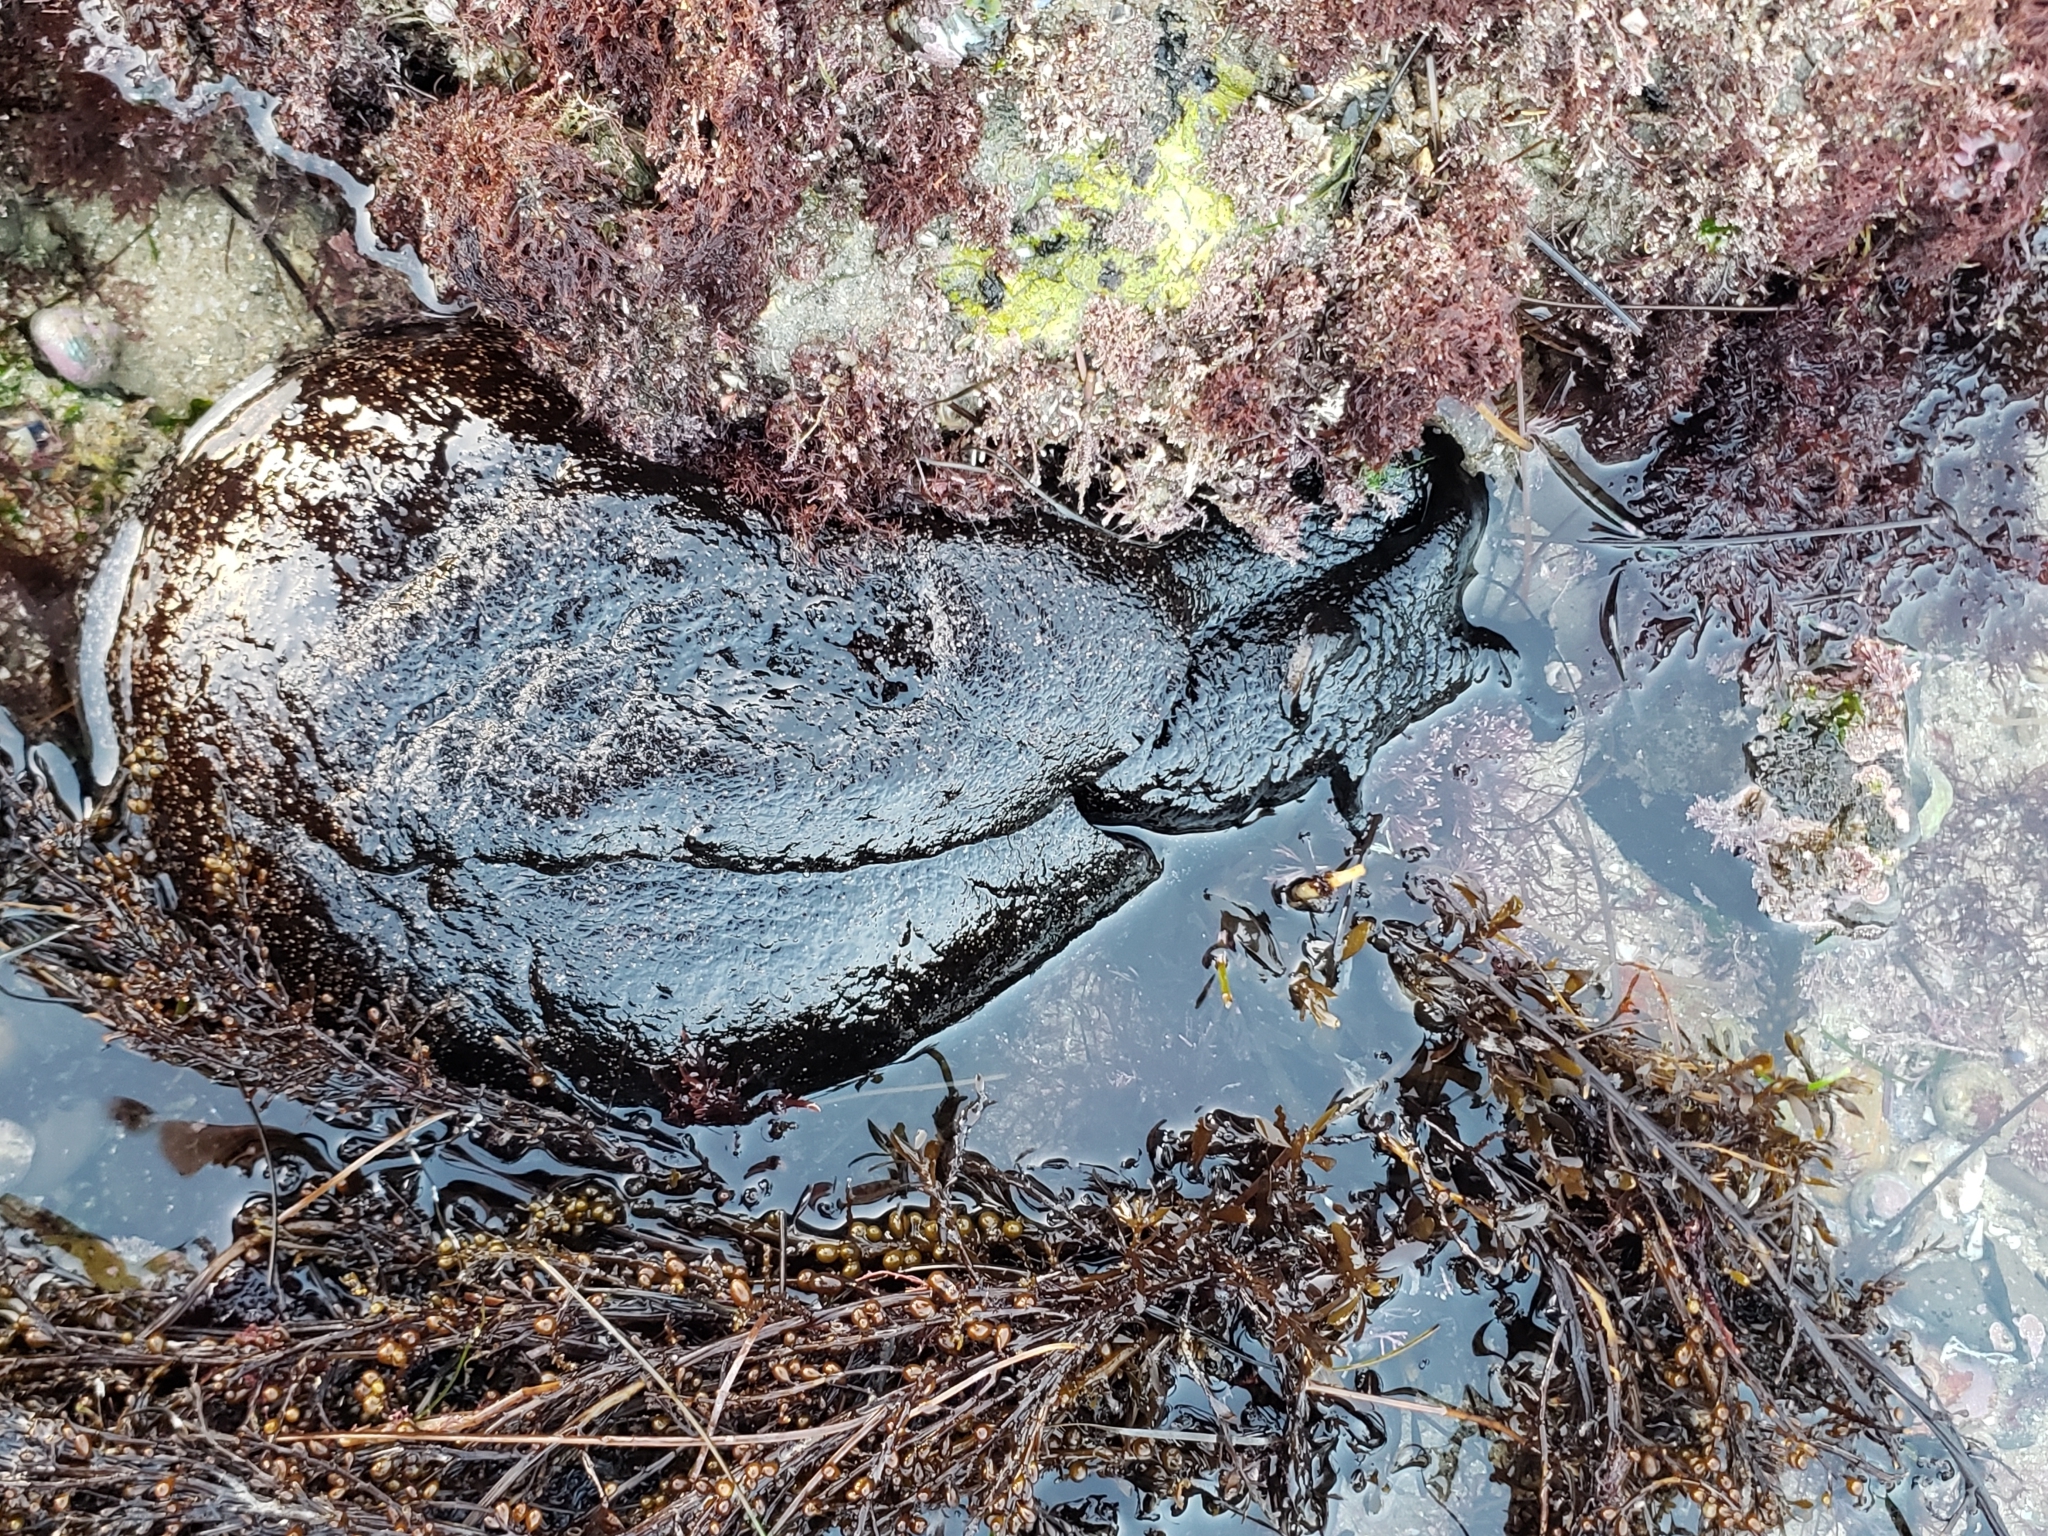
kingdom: Animalia
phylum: Mollusca
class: Gastropoda
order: Aplysiida
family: Aplysiidae
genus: Aplysia
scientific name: Aplysia vaccaria
